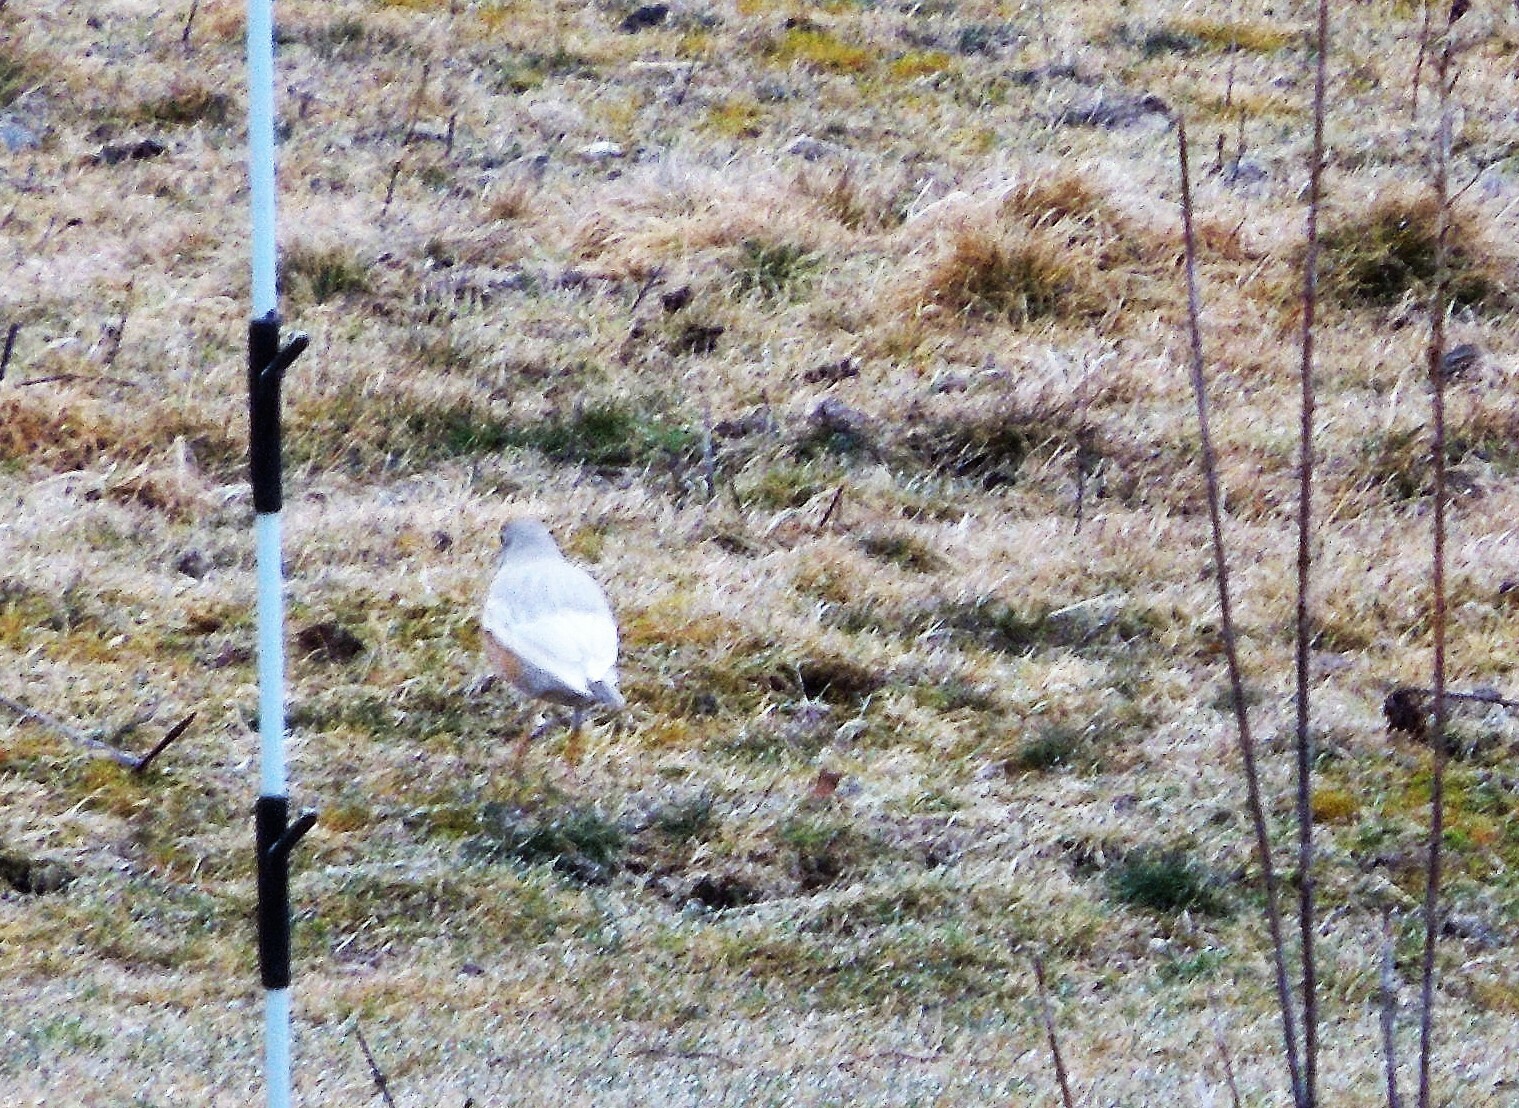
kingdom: Animalia
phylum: Chordata
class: Aves
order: Passeriformes
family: Turdidae
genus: Turdus
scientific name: Turdus migratorius
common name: American robin
